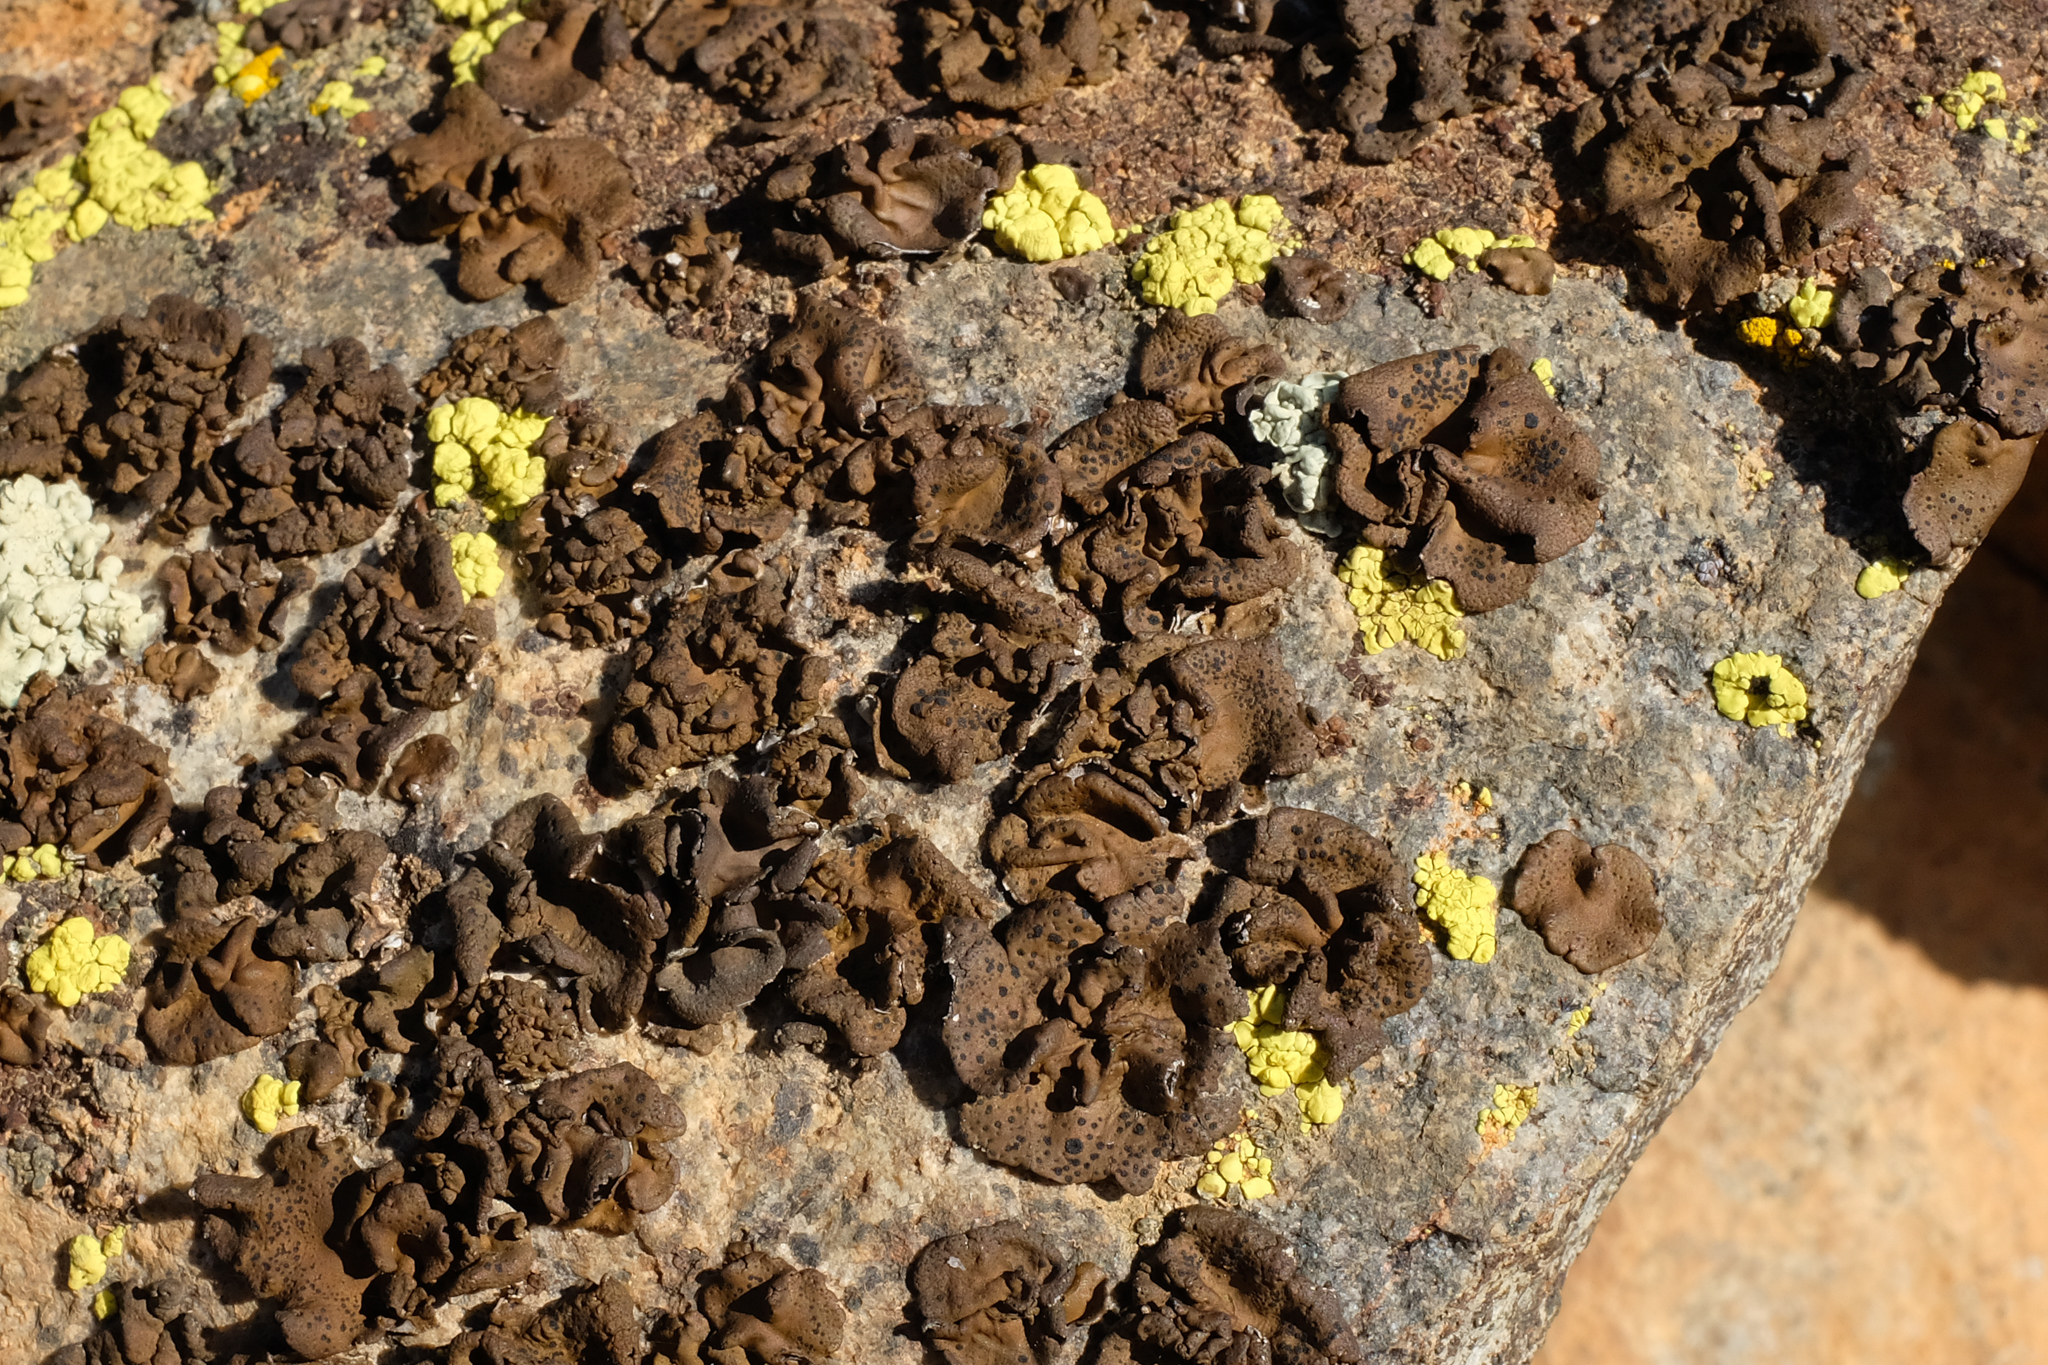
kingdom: Fungi
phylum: Ascomycota
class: Lecanoromycetes
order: Umbilicariales
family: Umbilicariaceae
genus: Umbilicaria
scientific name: Umbilicaria phaea
